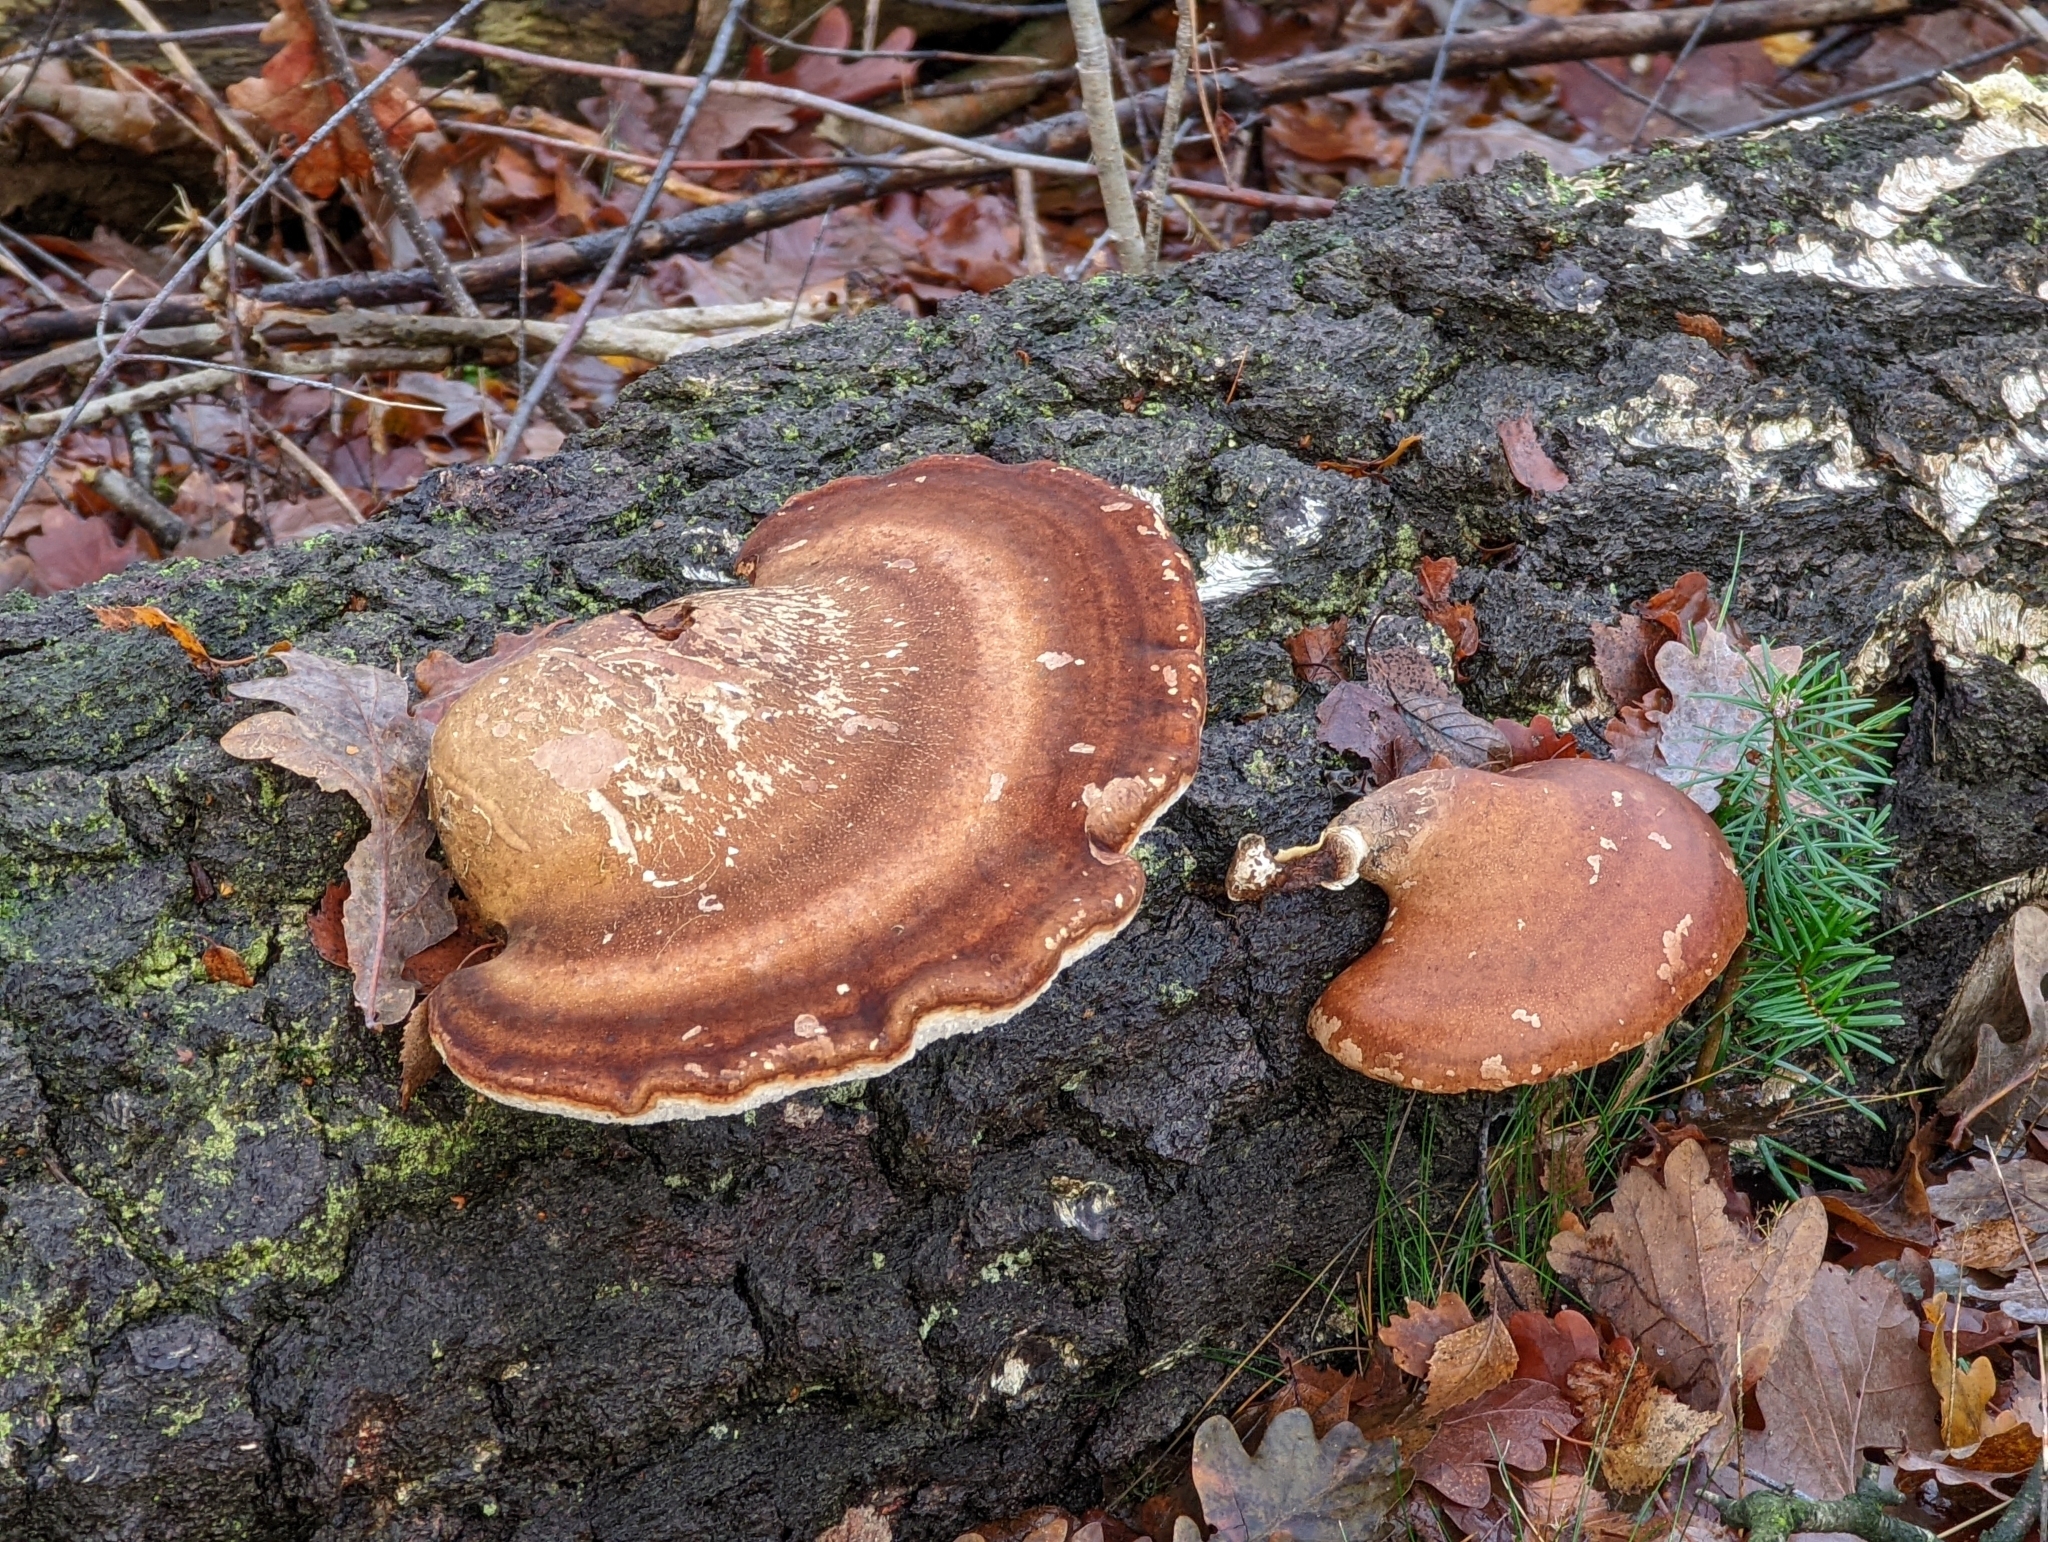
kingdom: Fungi
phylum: Basidiomycota
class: Agaricomycetes
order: Polyporales
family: Fomitopsidaceae
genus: Fomitopsis
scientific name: Fomitopsis betulina
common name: Birch polypore
